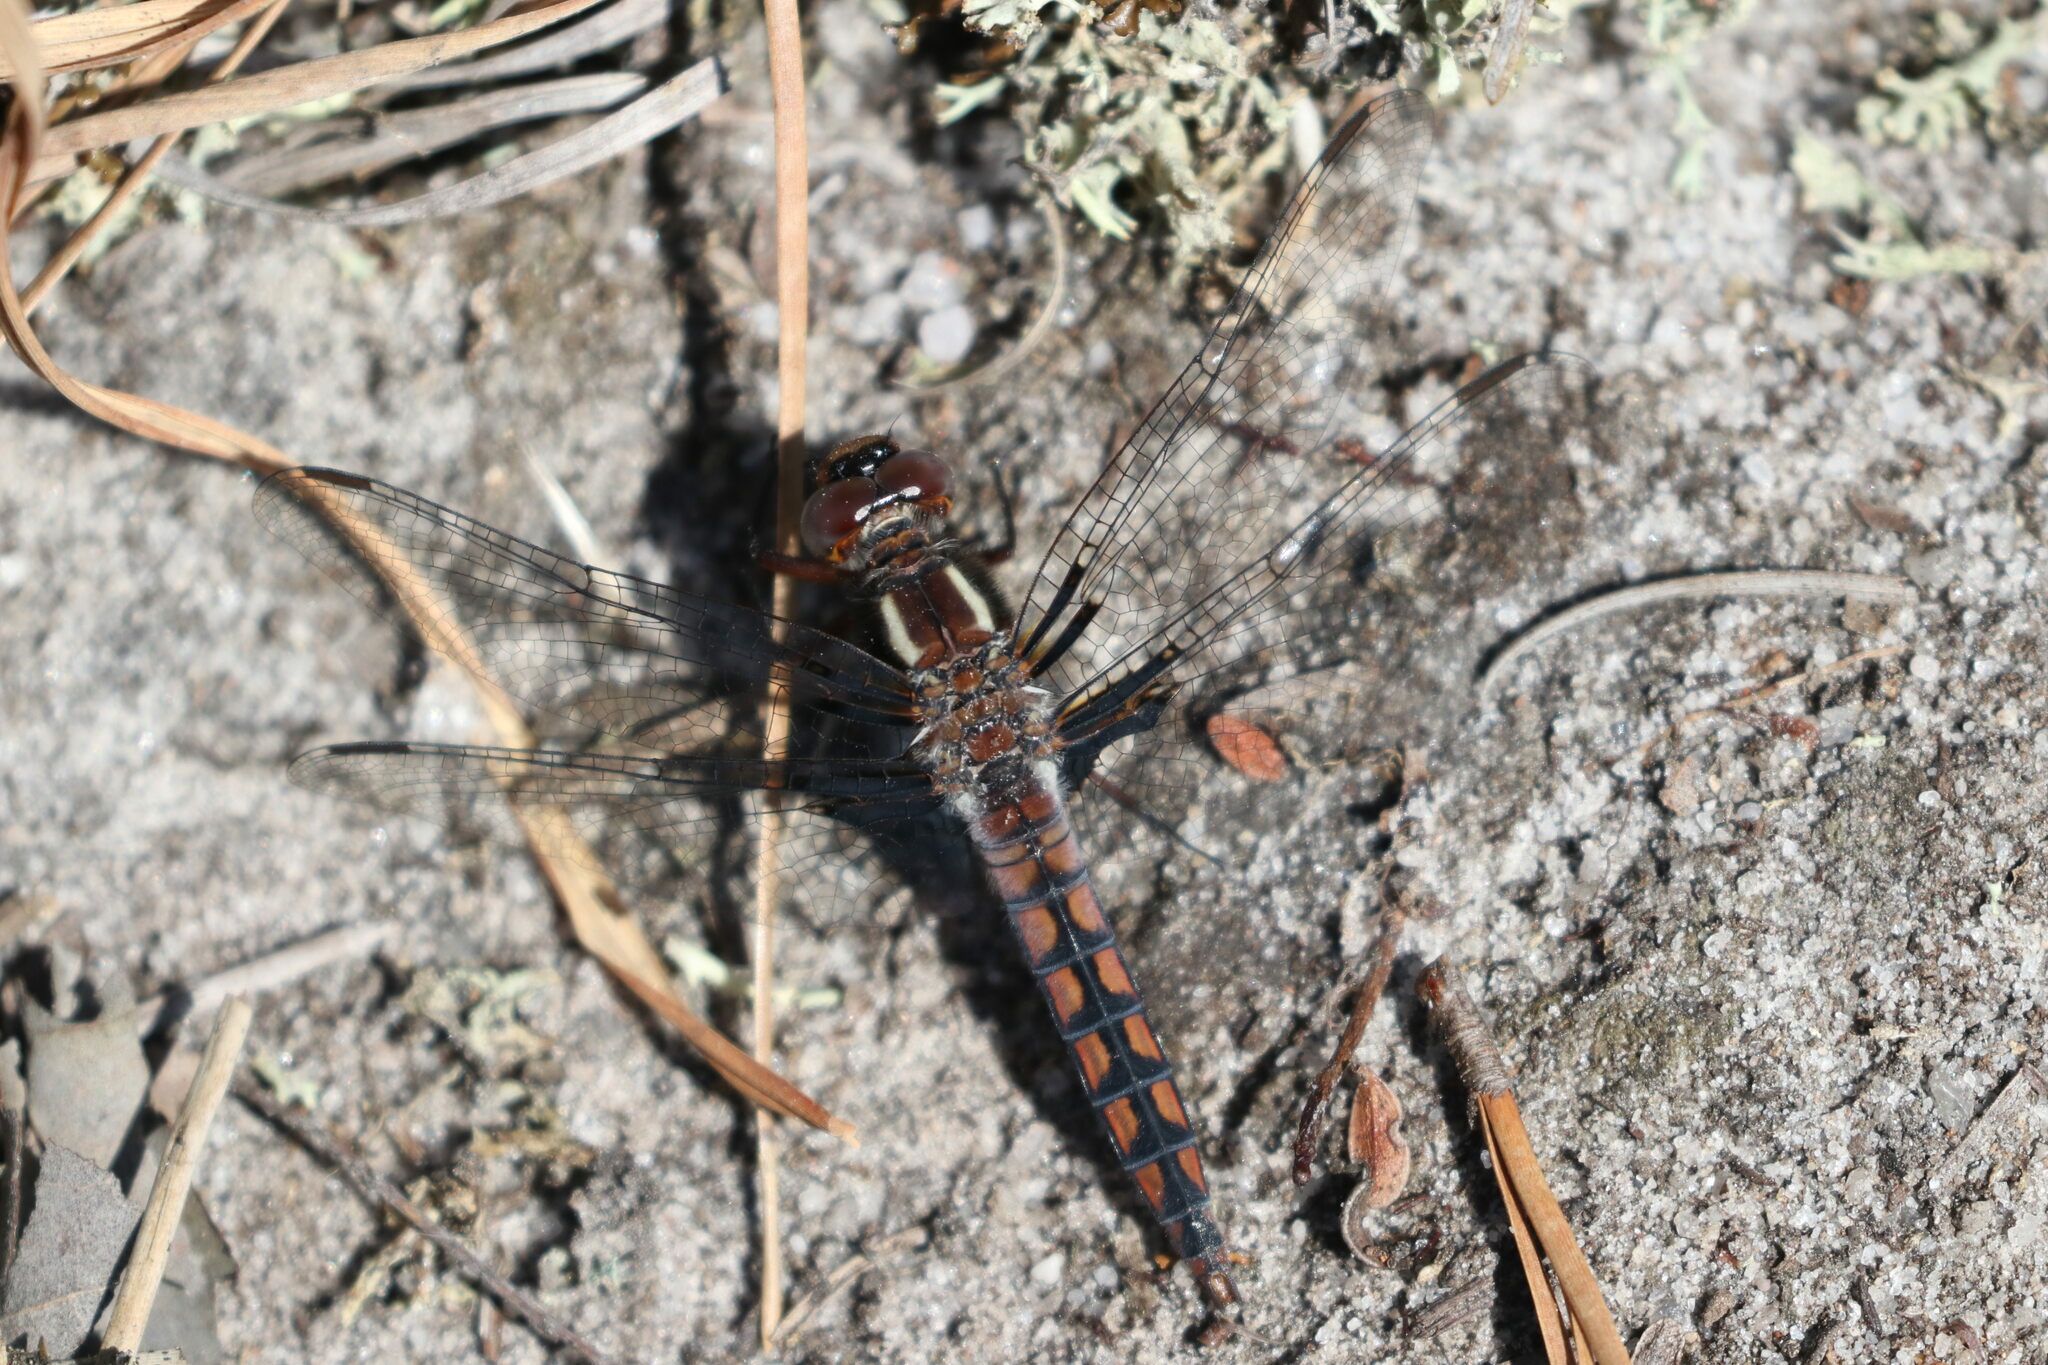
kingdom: Animalia
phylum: Arthropoda
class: Insecta
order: Odonata
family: Libellulidae
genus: Ladona
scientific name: Ladona deplanata
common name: Blue corporal
